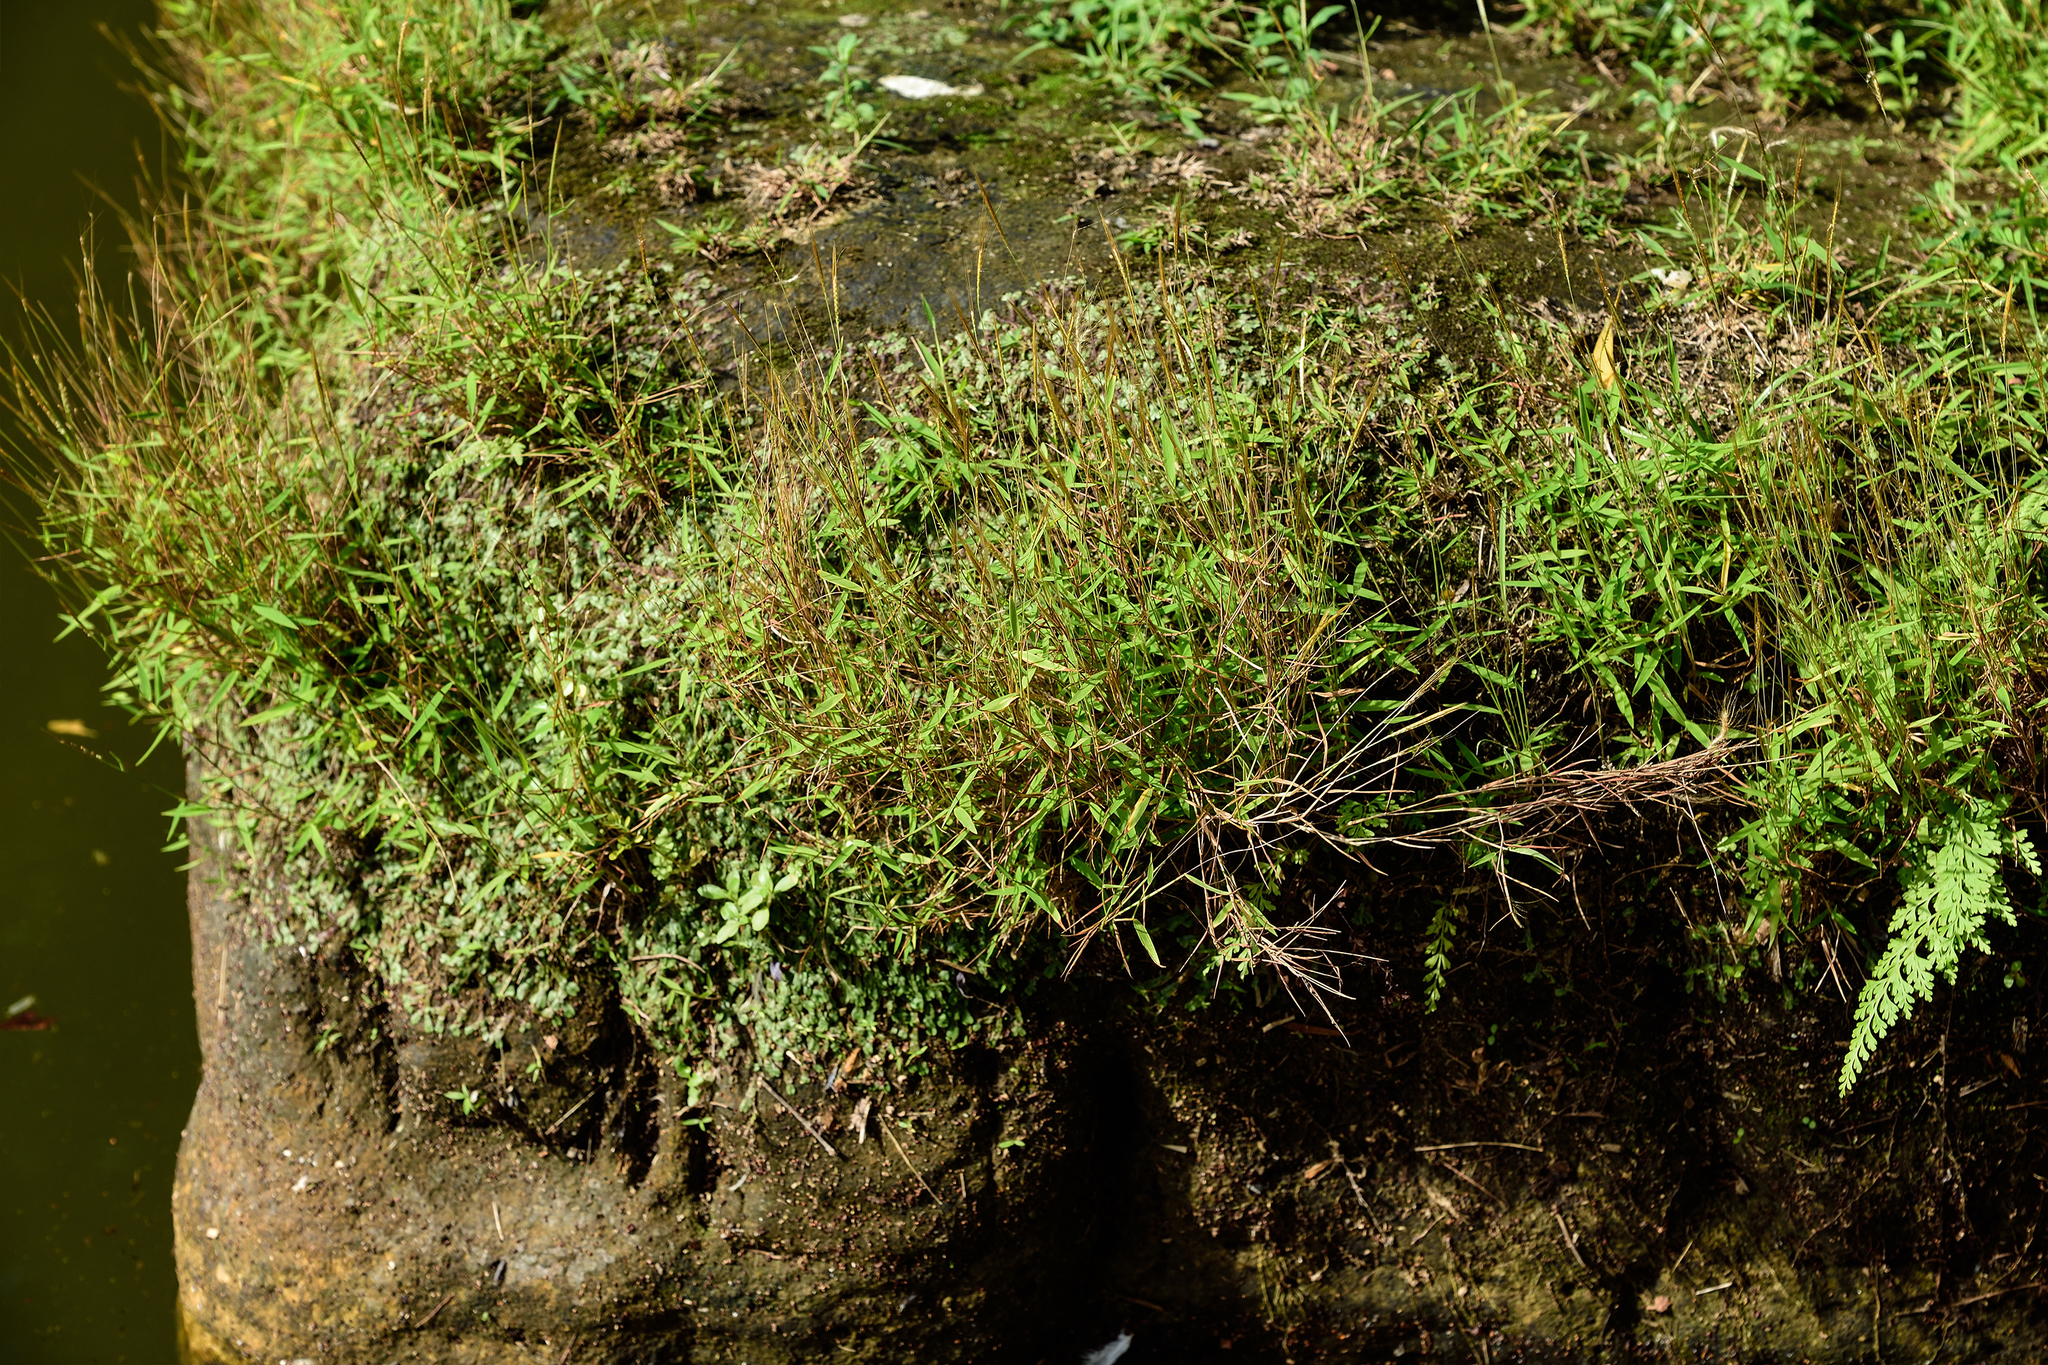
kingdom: Plantae
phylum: Tracheophyta
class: Liliopsida
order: Poales
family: Poaceae
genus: Pogonatherum
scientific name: Pogonatherum crinitum
